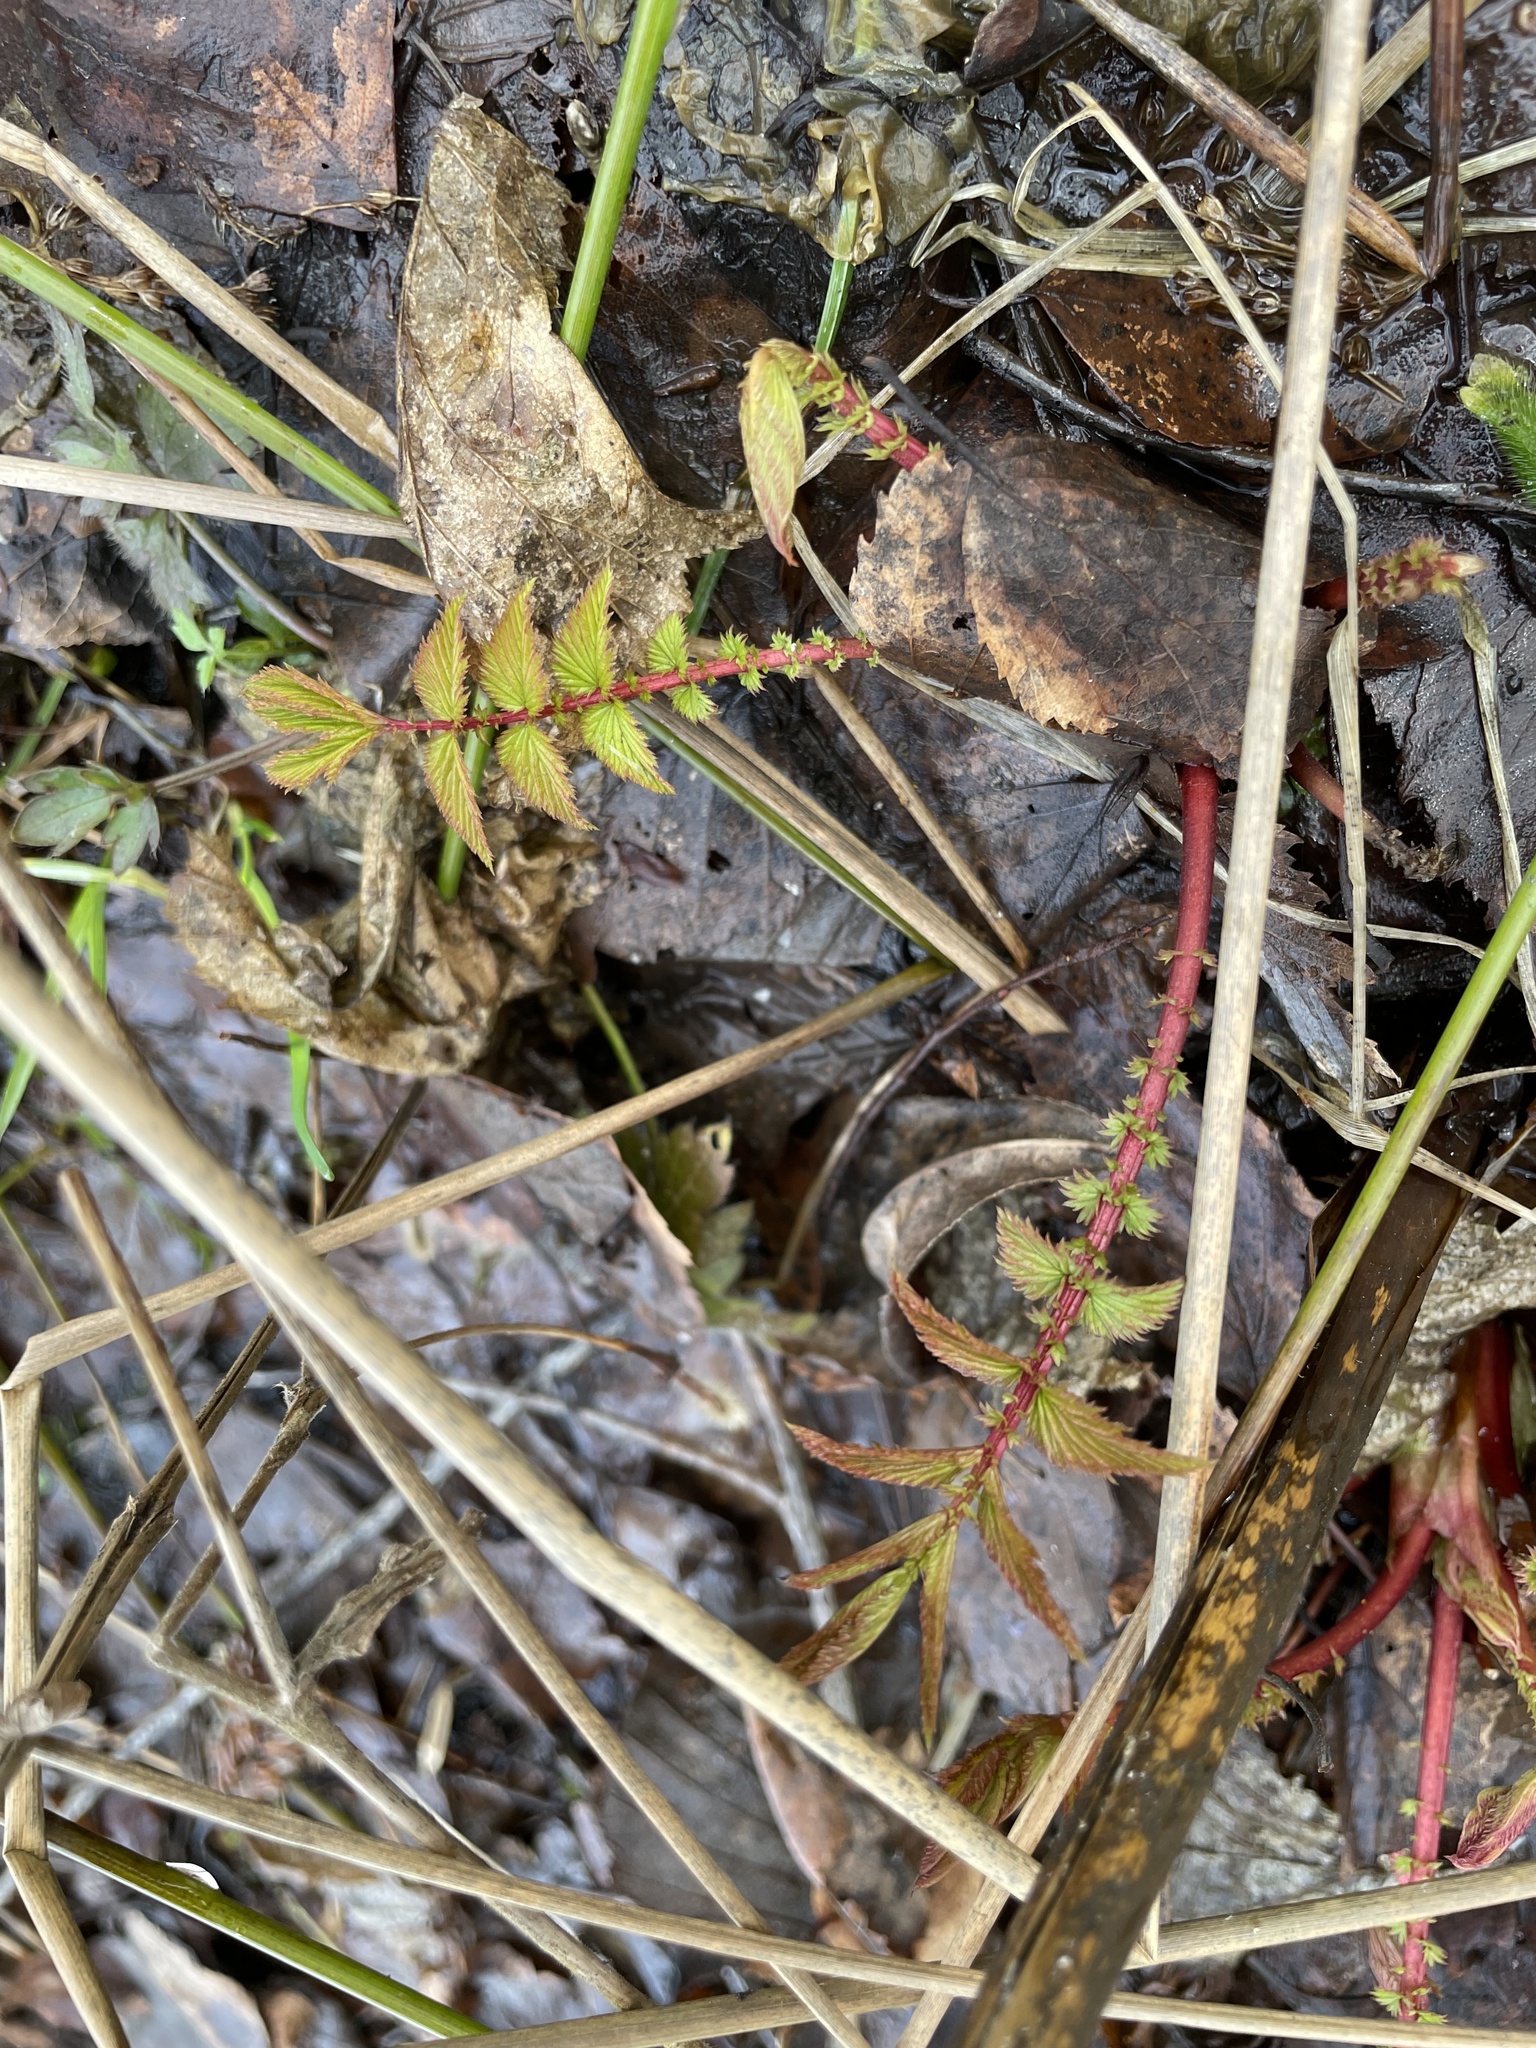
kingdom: Plantae
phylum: Tracheophyta
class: Magnoliopsida
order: Rosales
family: Rosaceae
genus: Filipendula
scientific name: Filipendula ulmaria
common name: Meadowsweet
